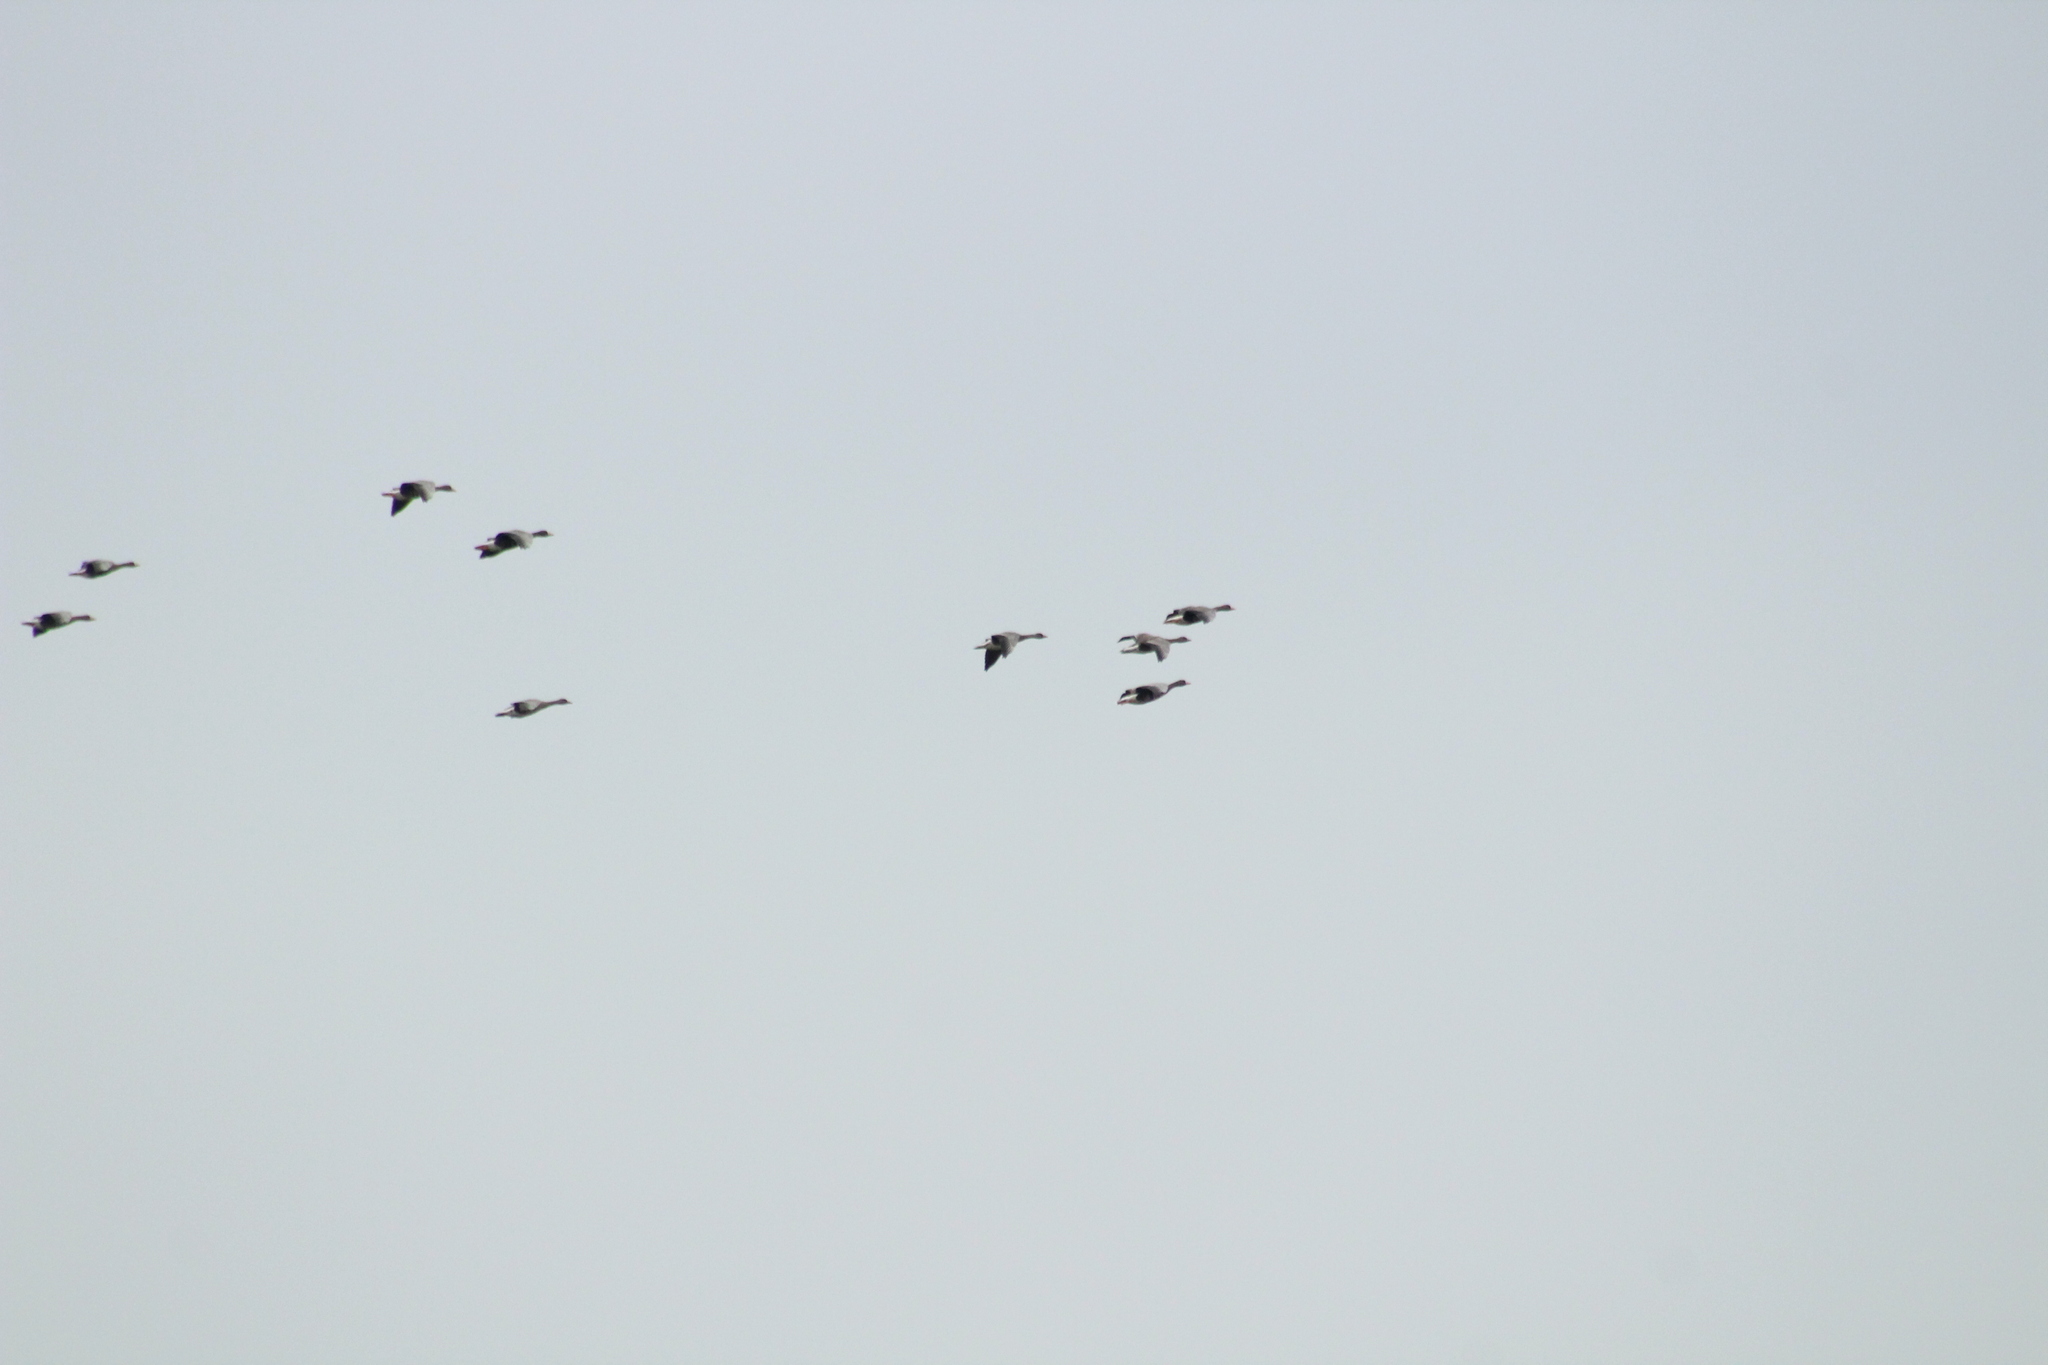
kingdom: Animalia
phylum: Chordata
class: Aves
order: Anseriformes
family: Anatidae
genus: Anser
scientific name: Anser albifrons
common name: Greater white-fronted goose
